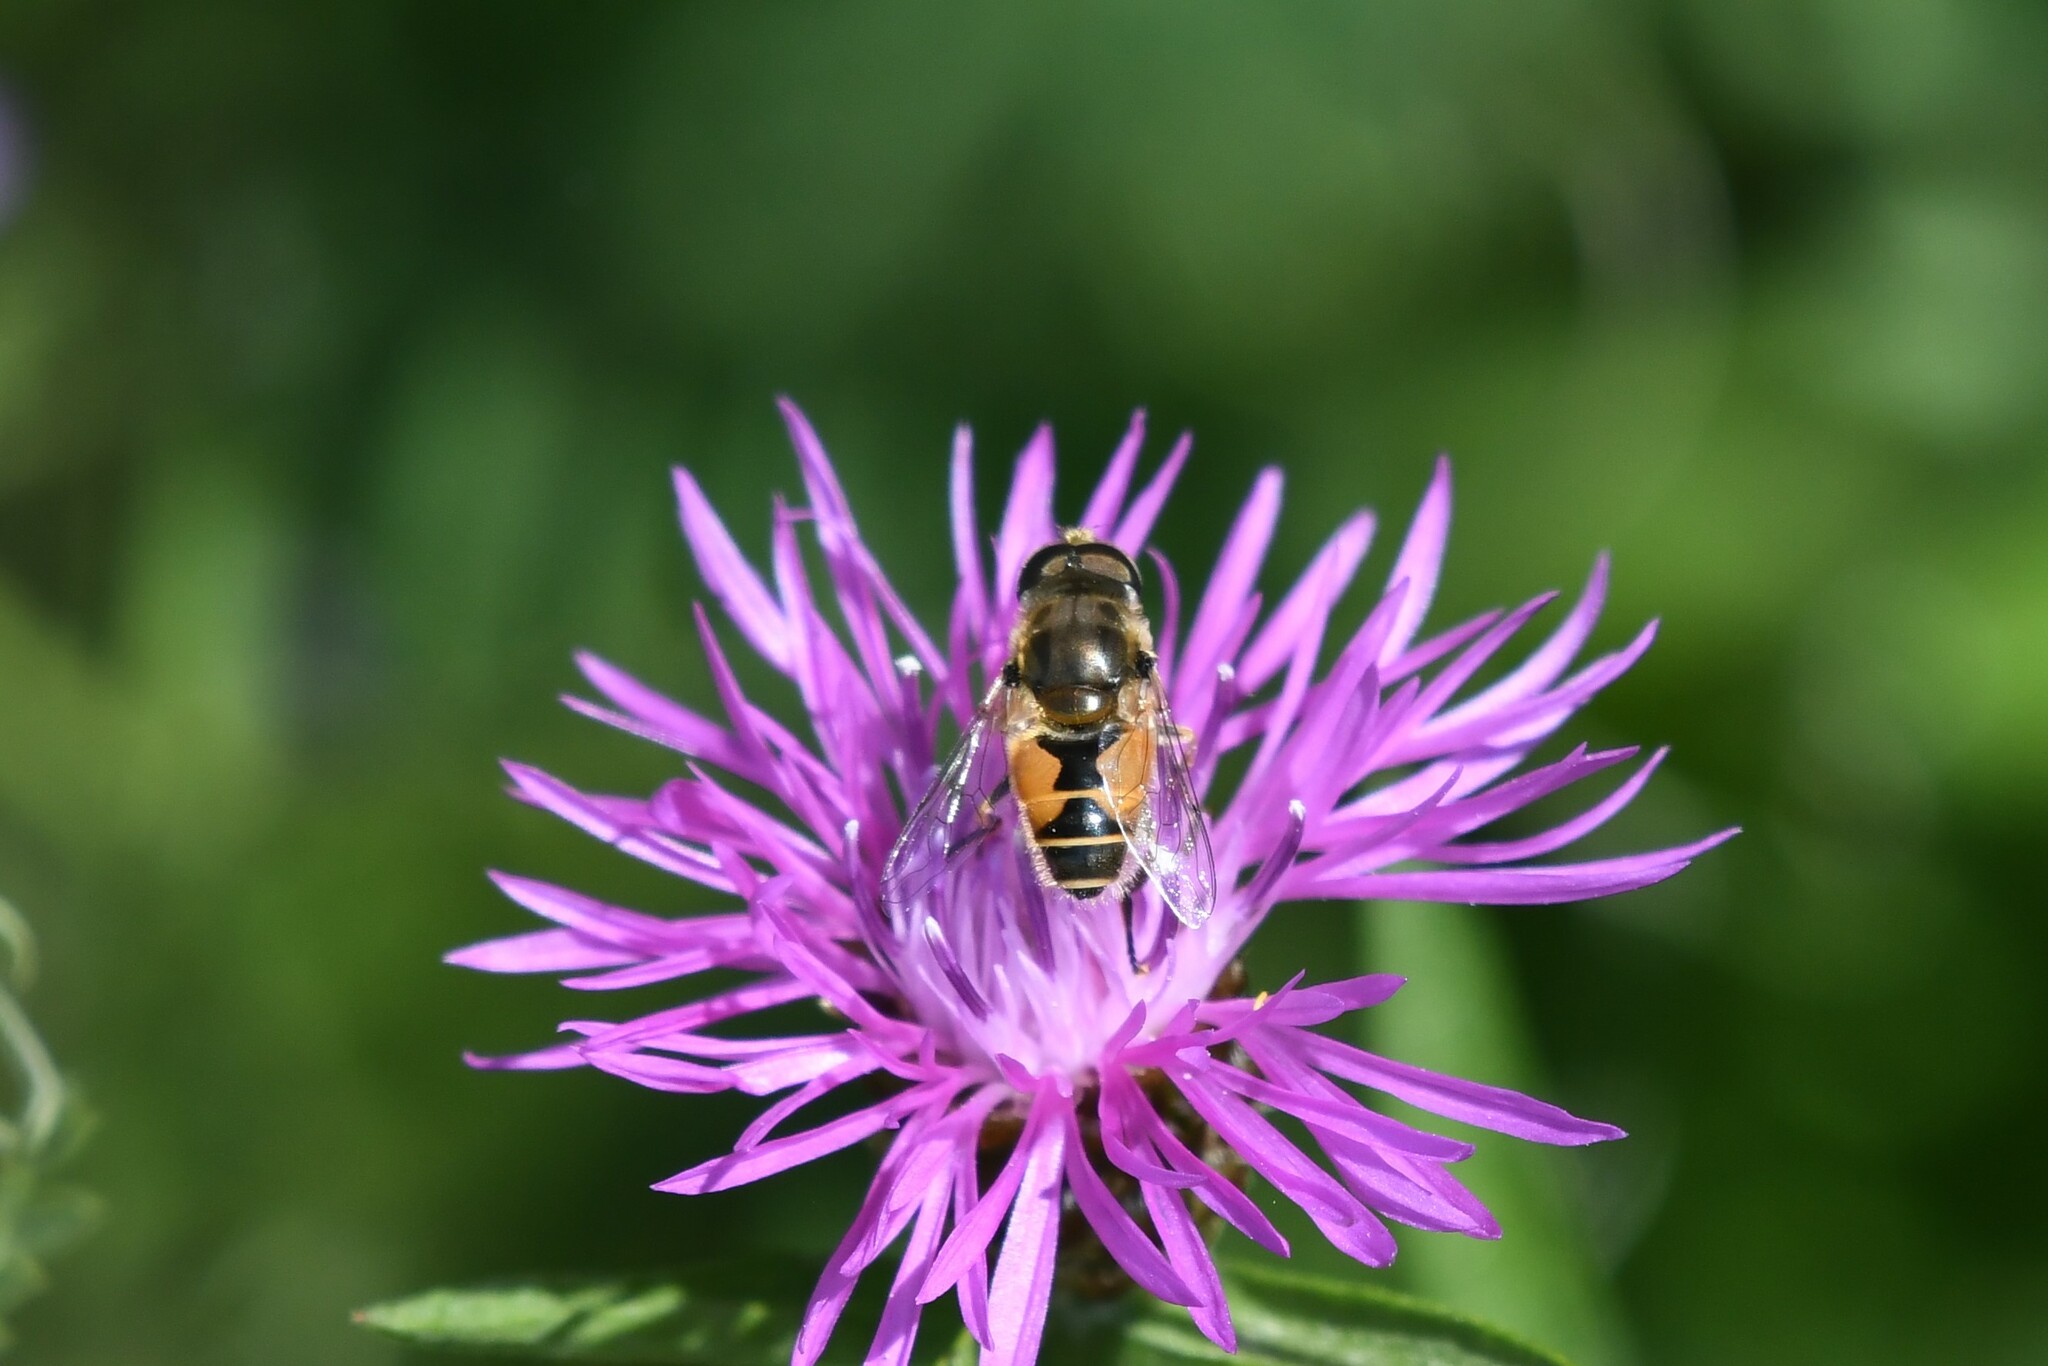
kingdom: Animalia
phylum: Arthropoda
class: Insecta
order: Diptera
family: Syrphidae
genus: Eristalis
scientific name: Eristalis arbustorum
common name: Hover fly
